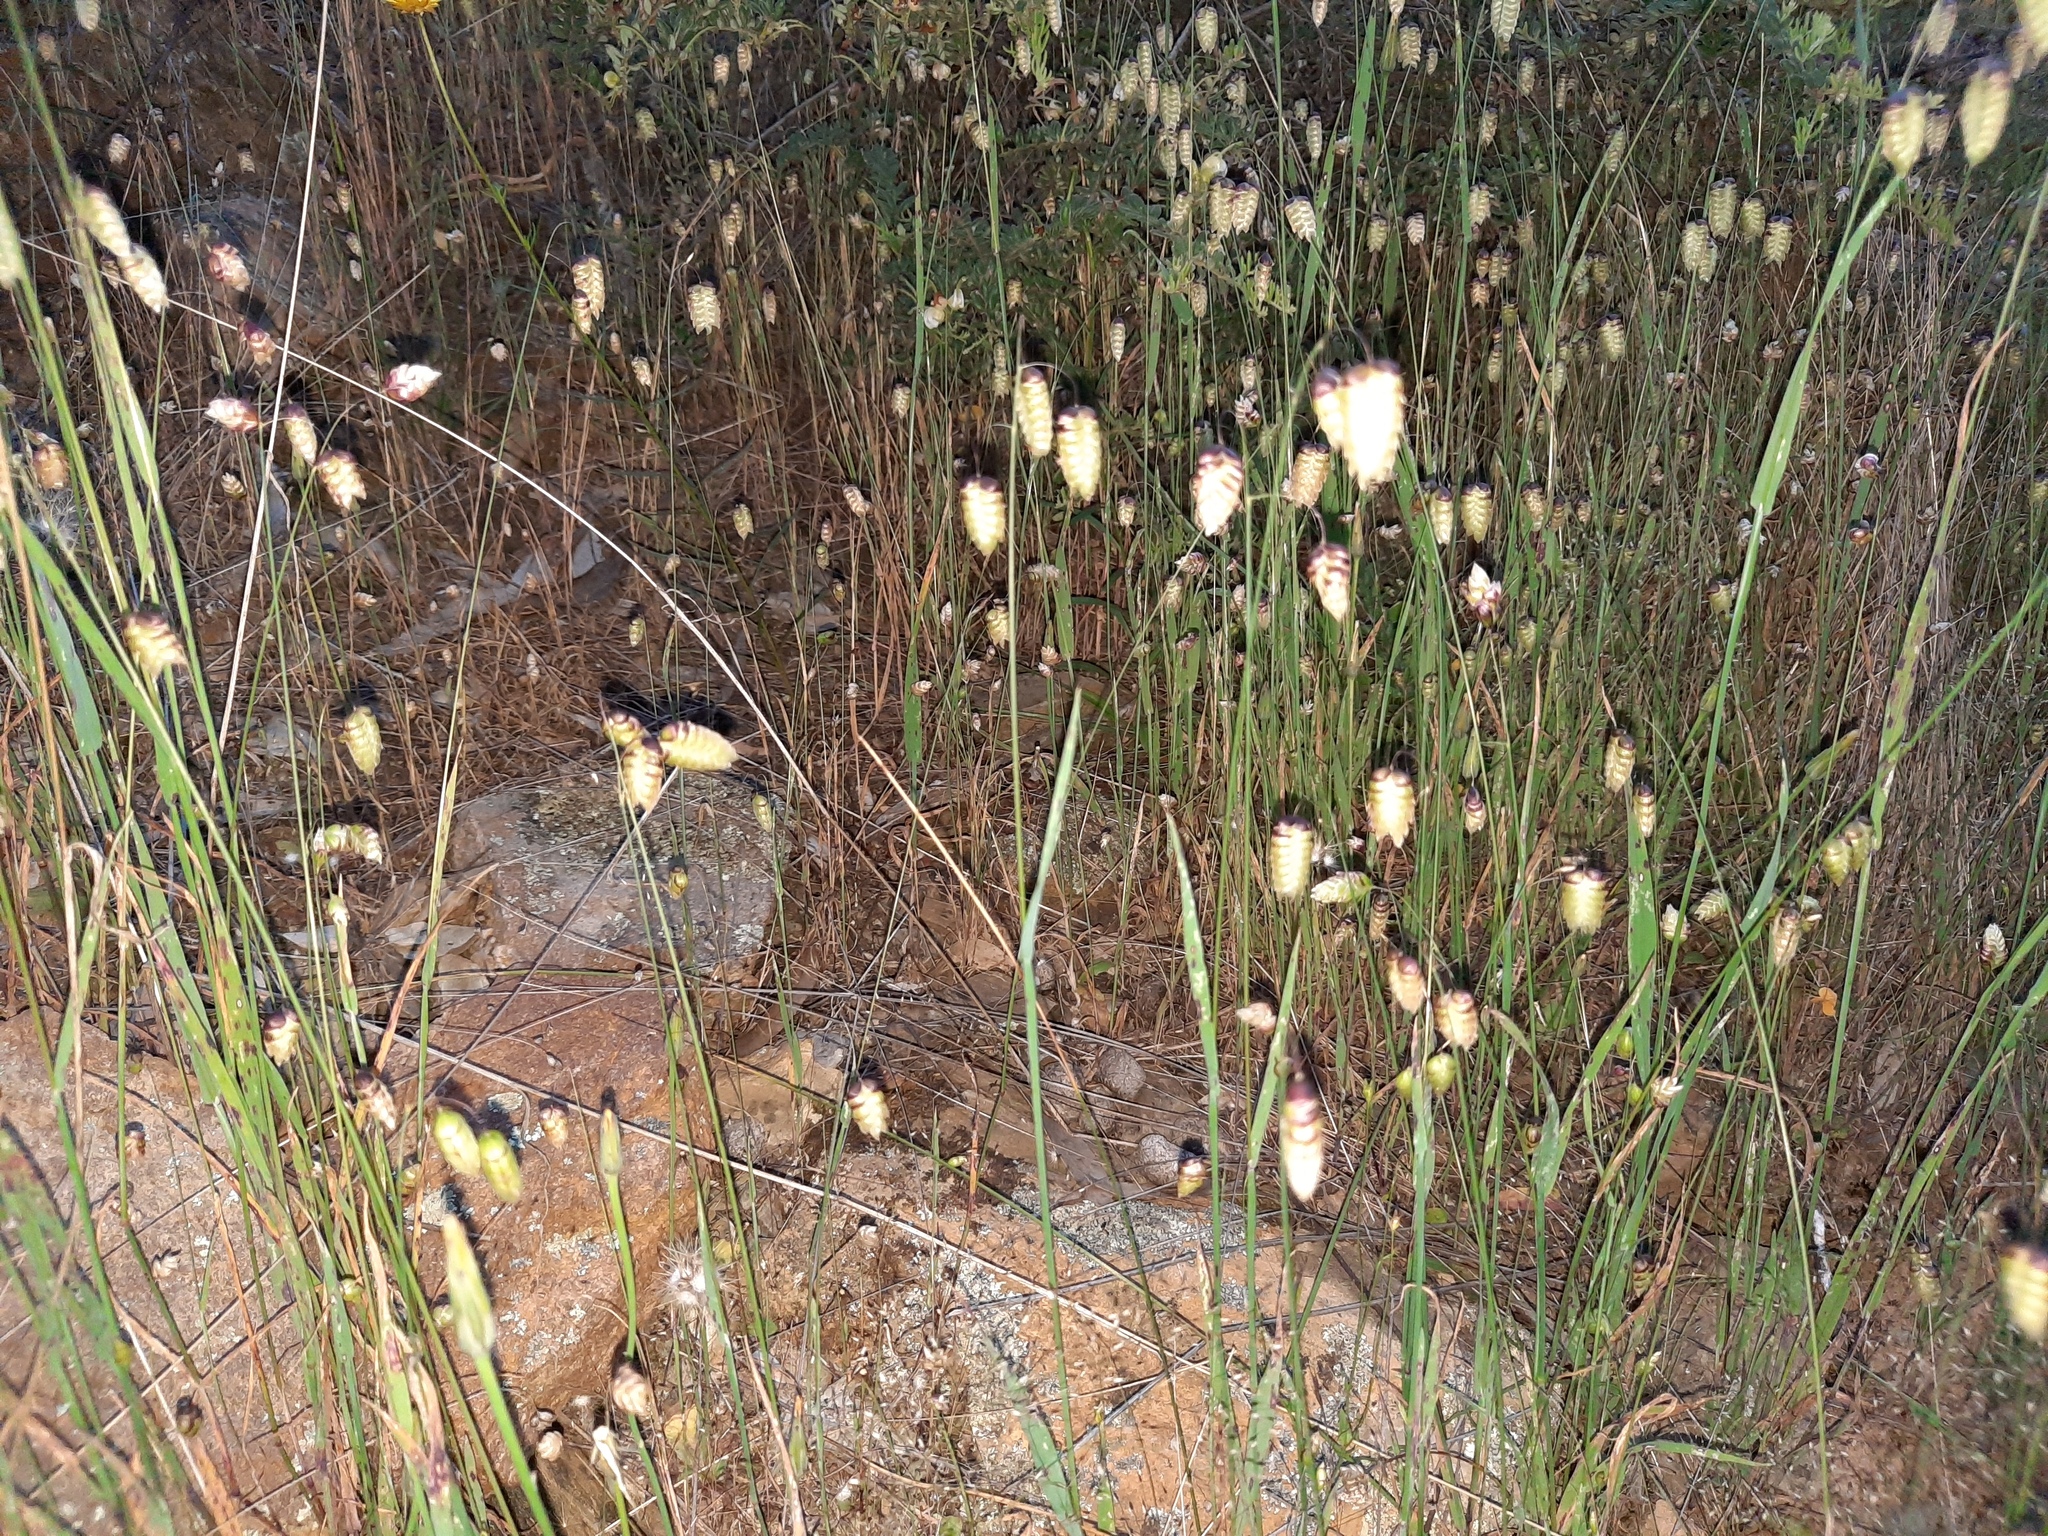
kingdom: Plantae
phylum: Tracheophyta
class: Liliopsida
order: Poales
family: Poaceae
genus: Briza
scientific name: Briza maxima
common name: Big quakinggrass
